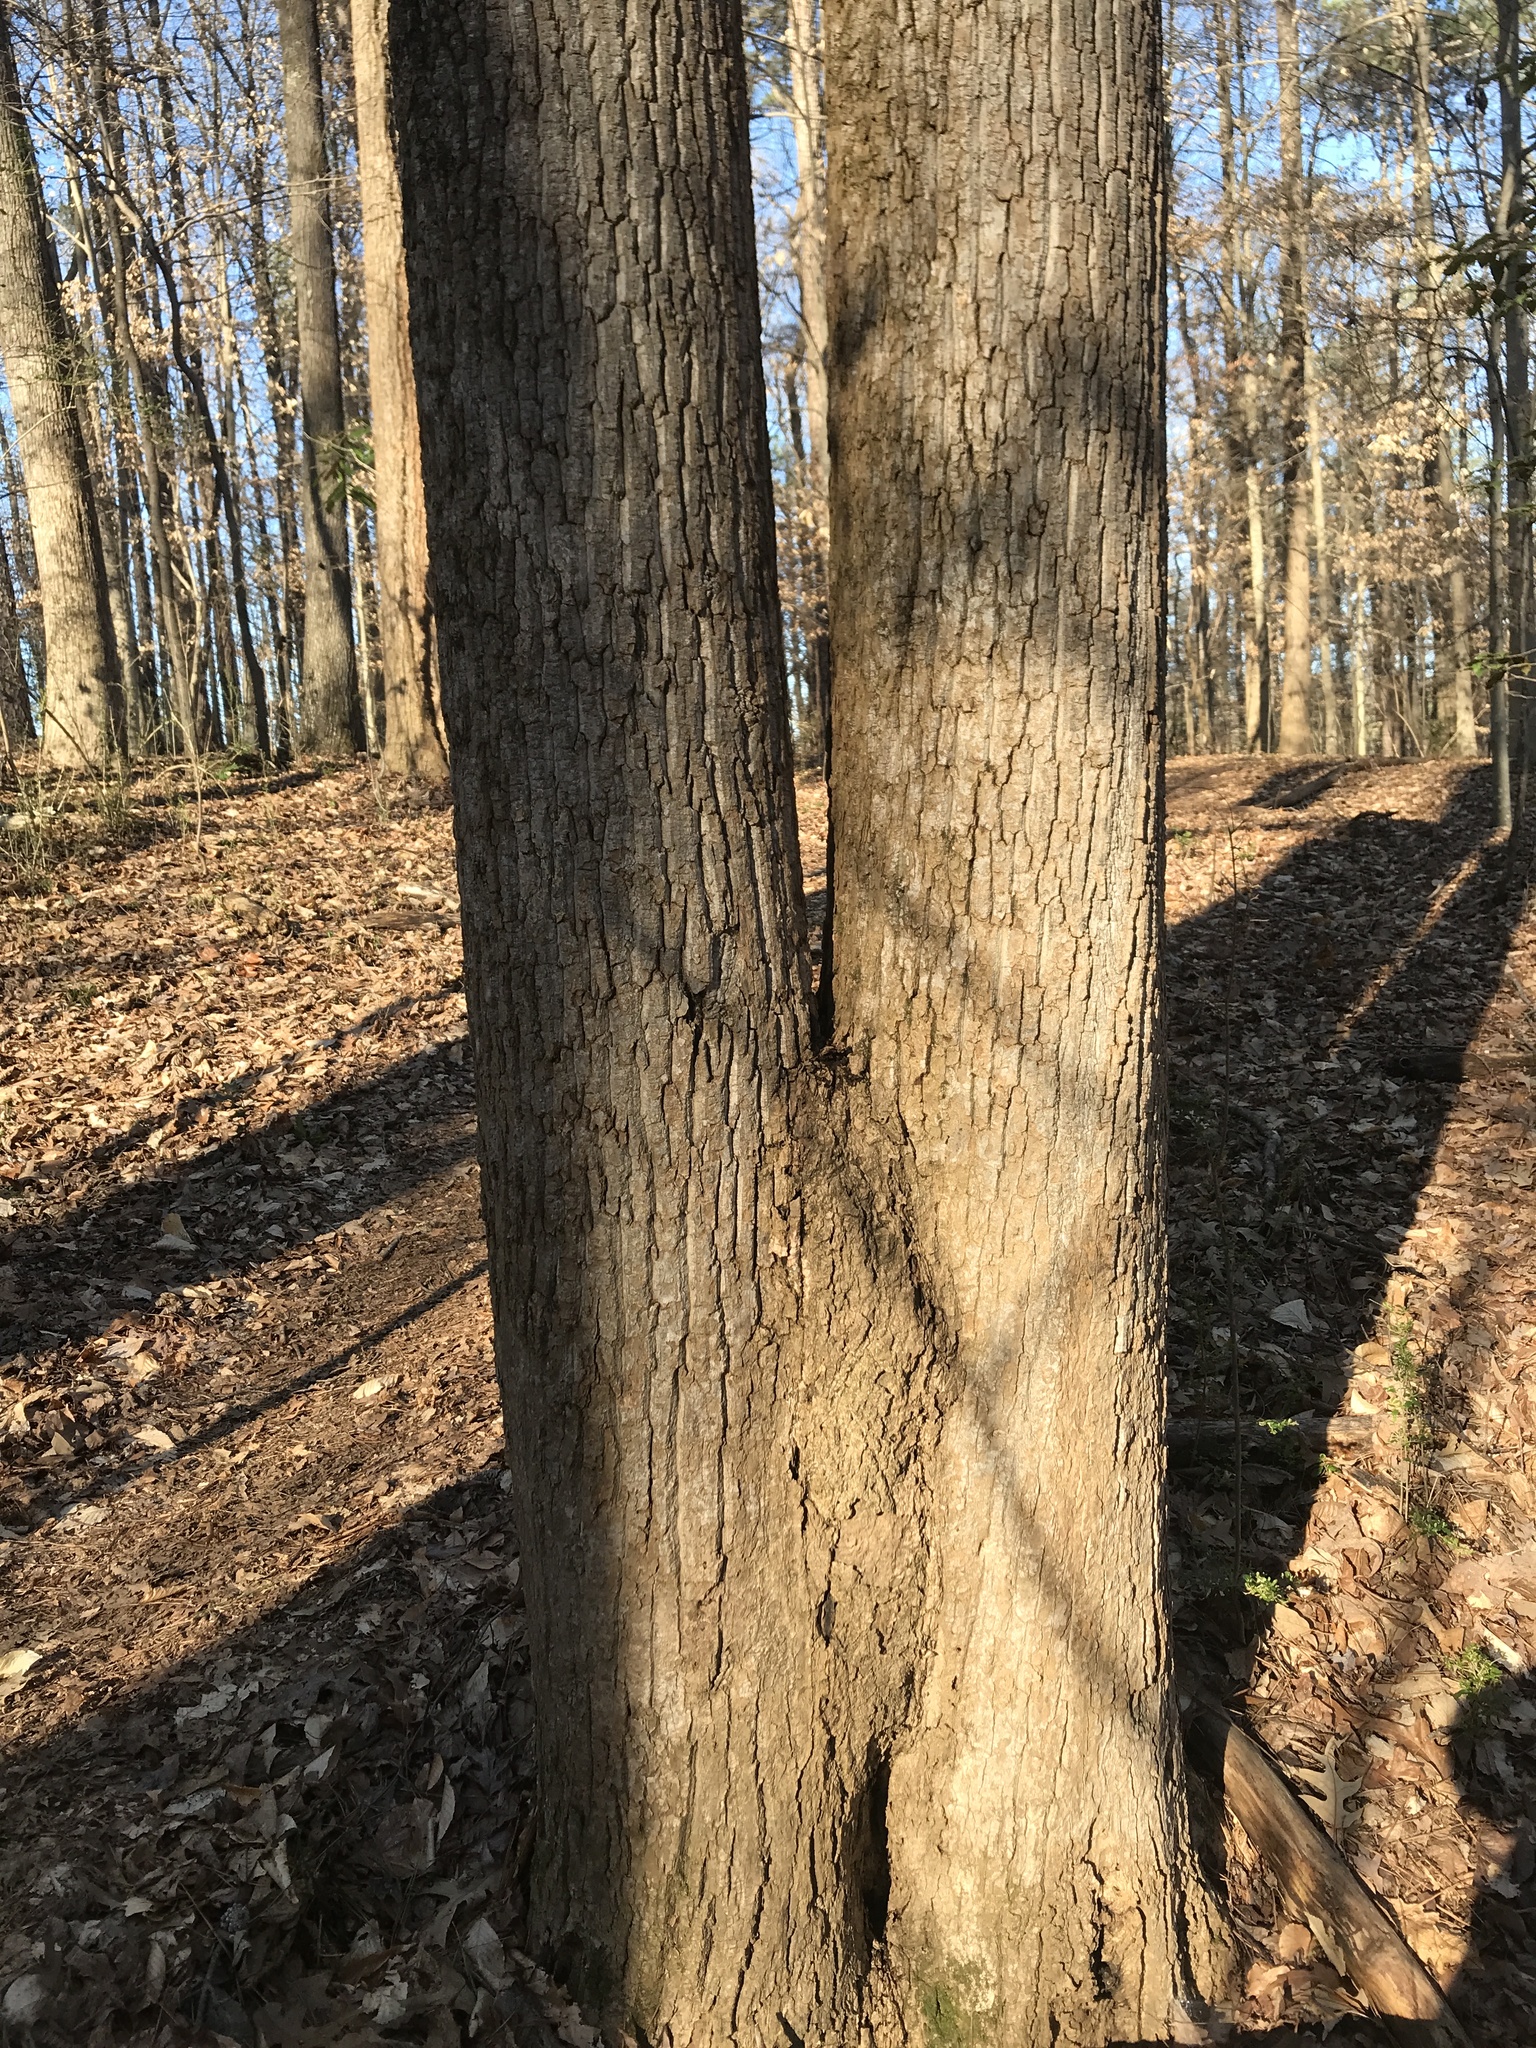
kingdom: Plantae
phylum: Tracheophyta
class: Magnoliopsida
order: Magnoliales
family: Magnoliaceae
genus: Liriodendron
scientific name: Liriodendron tulipifera
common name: Tulip tree
